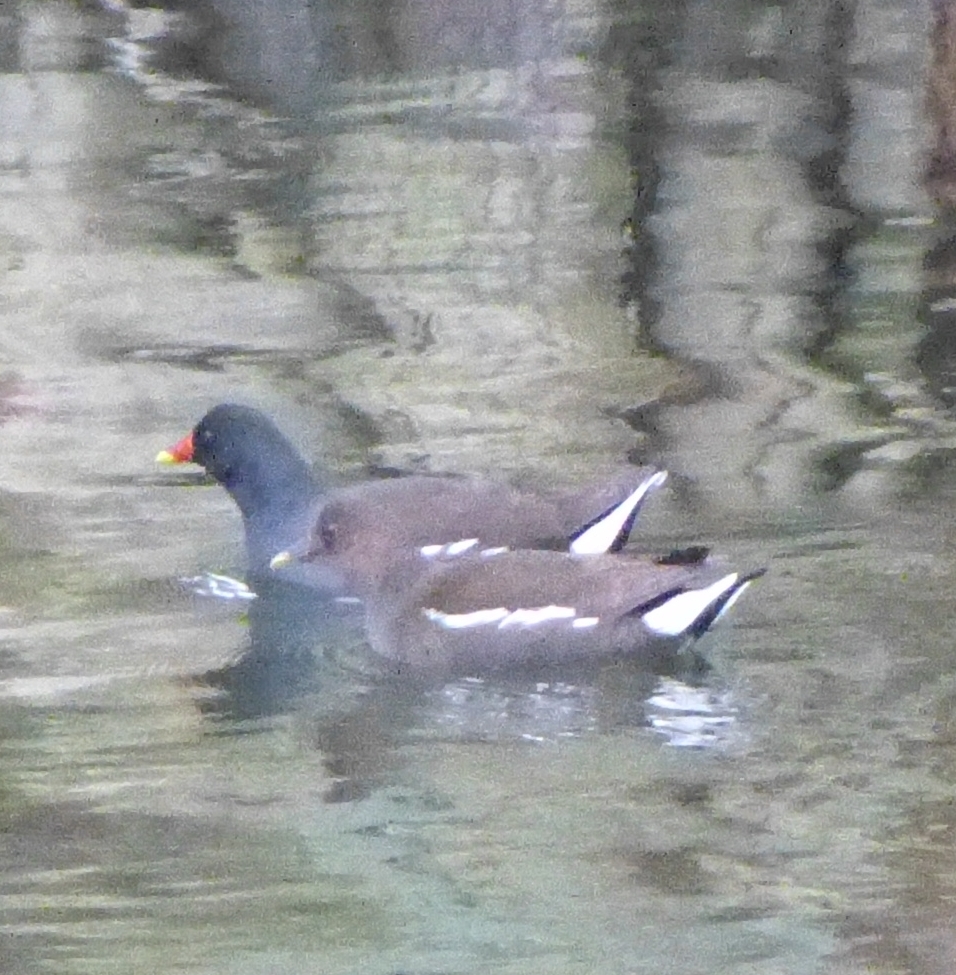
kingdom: Animalia
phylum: Chordata
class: Aves
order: Gruiformes
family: Rallidae
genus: Gallinula
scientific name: Gallinula chloropus
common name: Common moorhen
